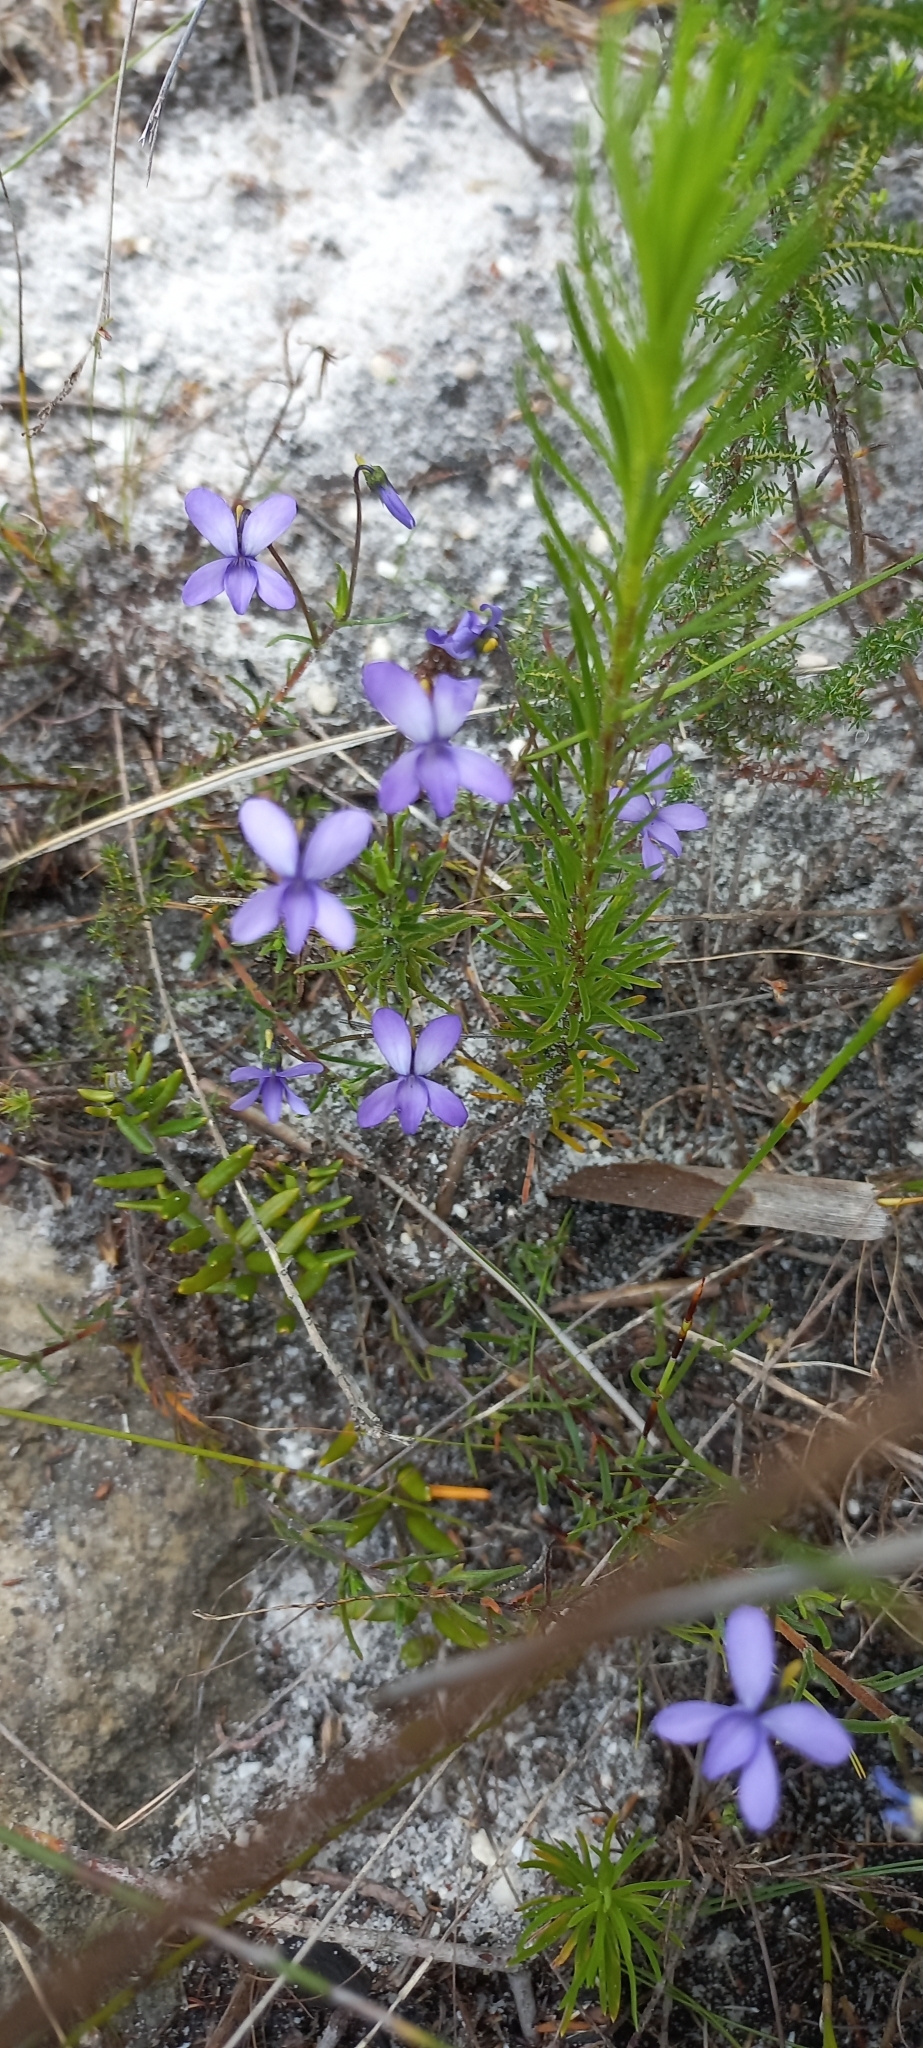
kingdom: Plantae
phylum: Tracheophyta
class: Magnoliopsida
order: Malpighiales
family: Violaceae
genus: Viola
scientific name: Viola decumbens
